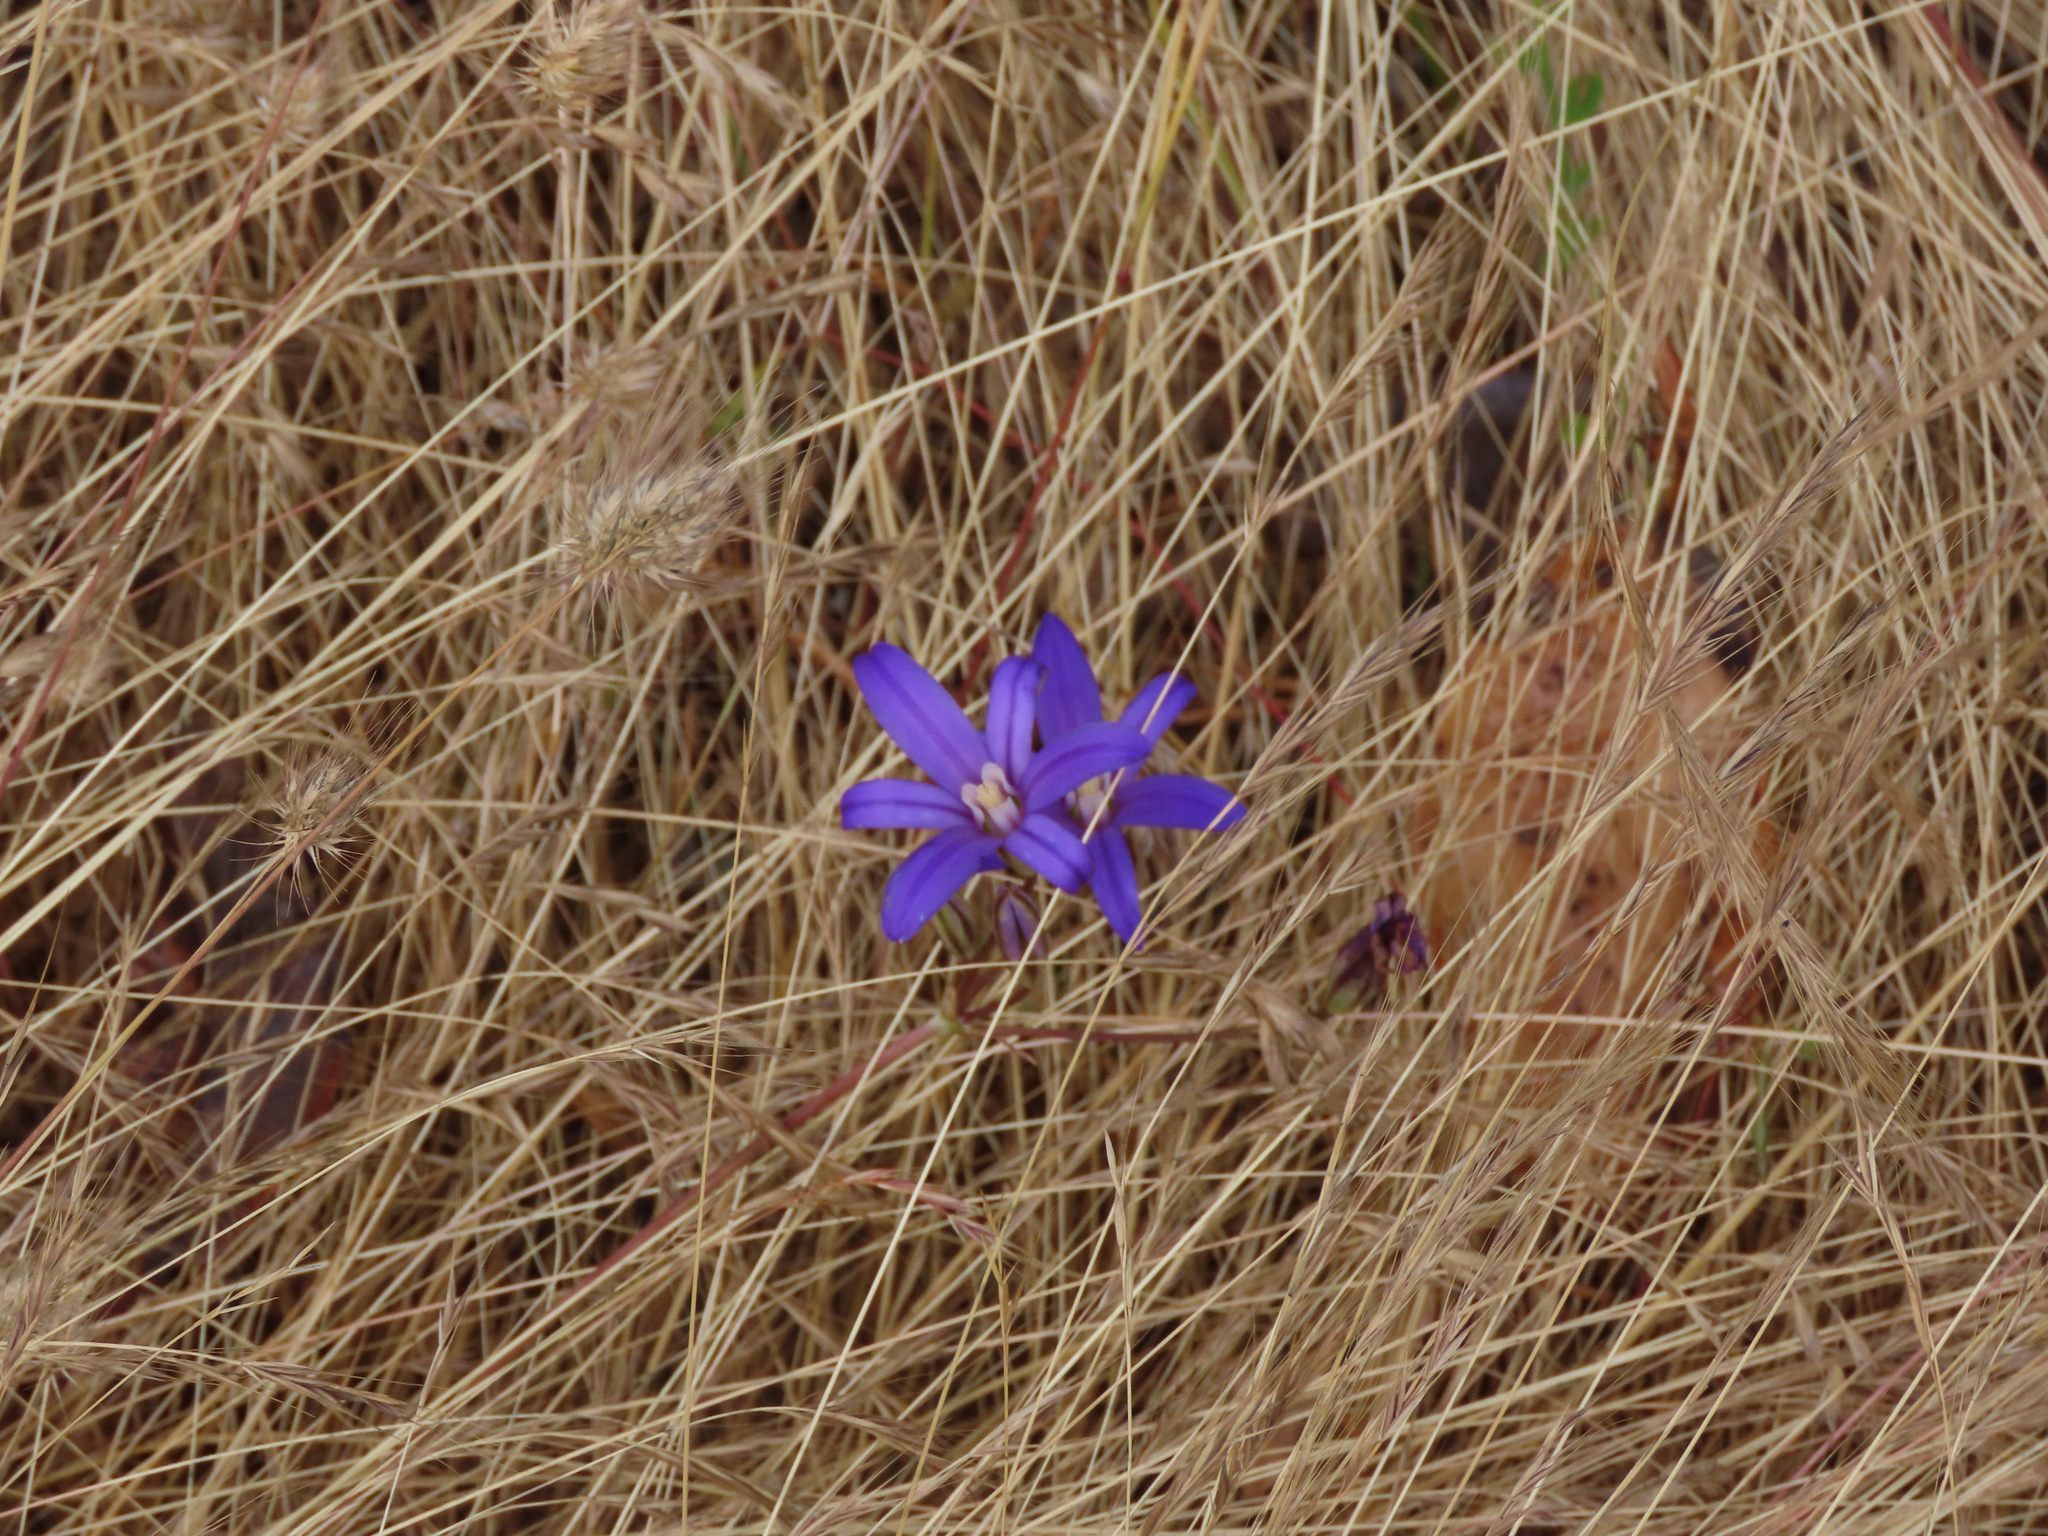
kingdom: Plantae
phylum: Tracheophyta
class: Liliopsida
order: Asparagales
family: Asparagaceae
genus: Brodiaea
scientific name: Brodiaea coronaria
